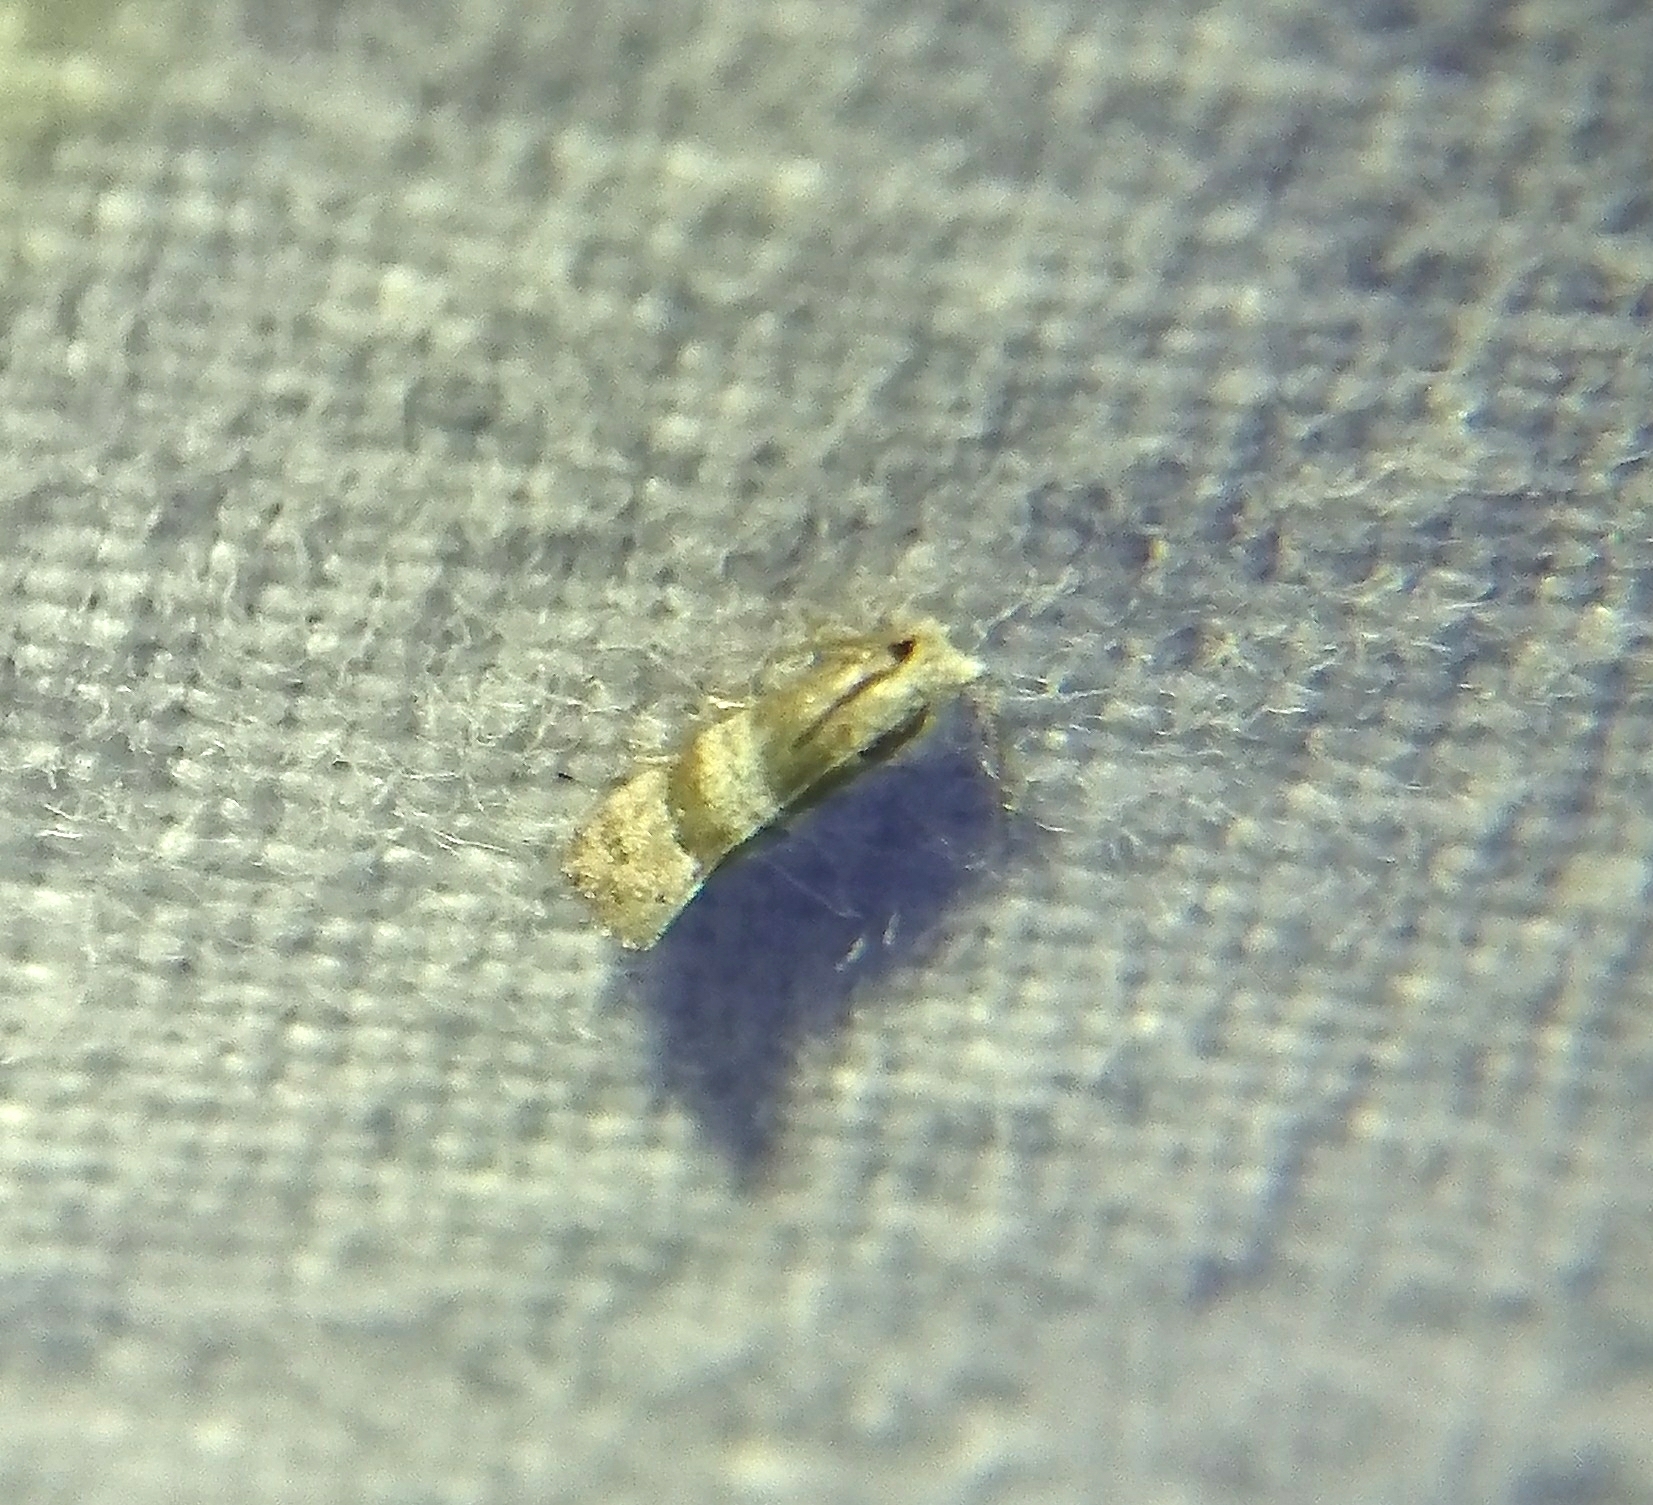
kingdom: Animalia
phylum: Arthropoda
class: Insecta
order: Lepidoptera
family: Tortricidae
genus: Corticivora
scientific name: Corticivora parva
